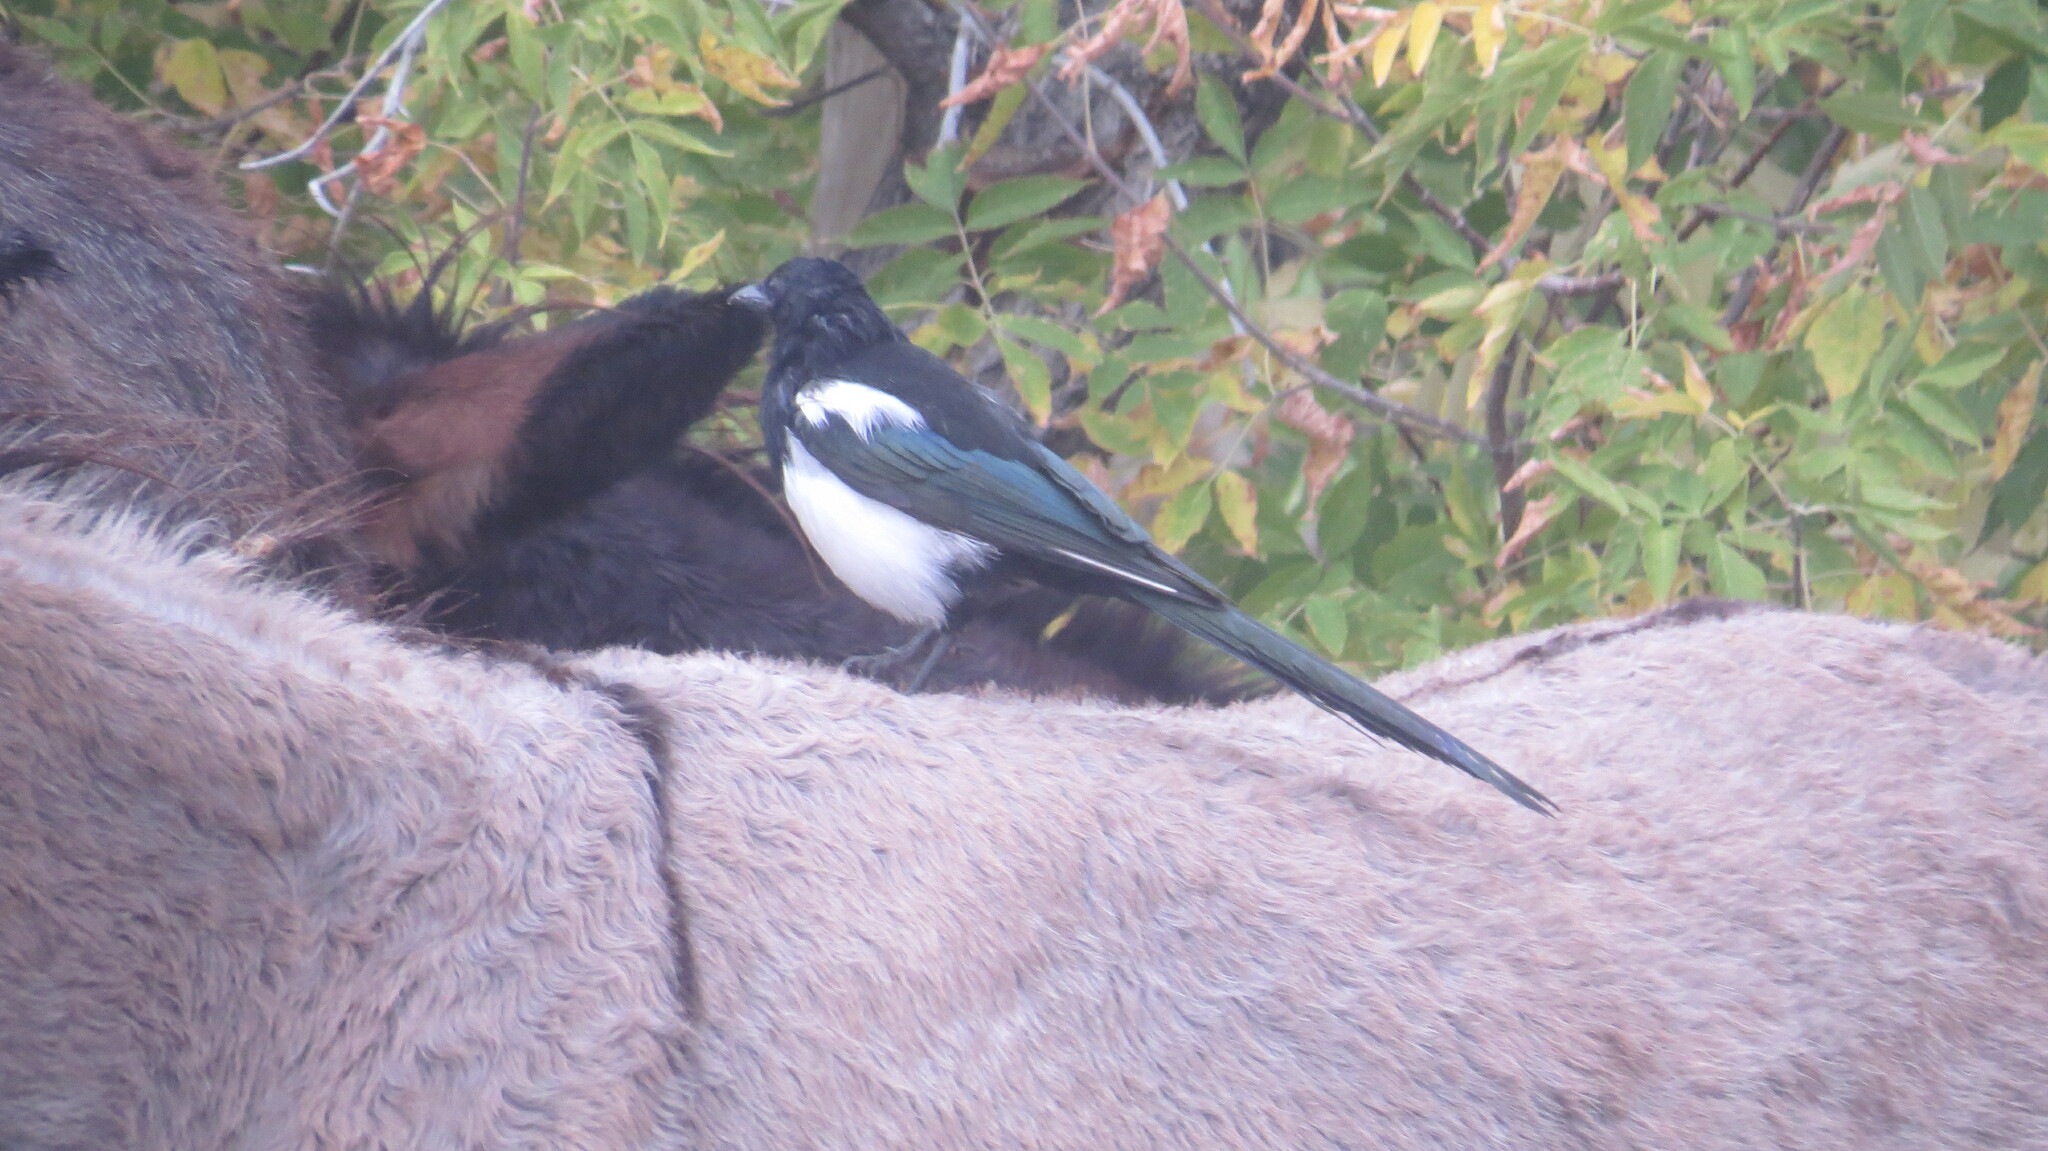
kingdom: Animalia
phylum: Chordata
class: Aves
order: Passeriformes
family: Corvidae
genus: Pica
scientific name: Pica hudsonia
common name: Black-billed magpie
